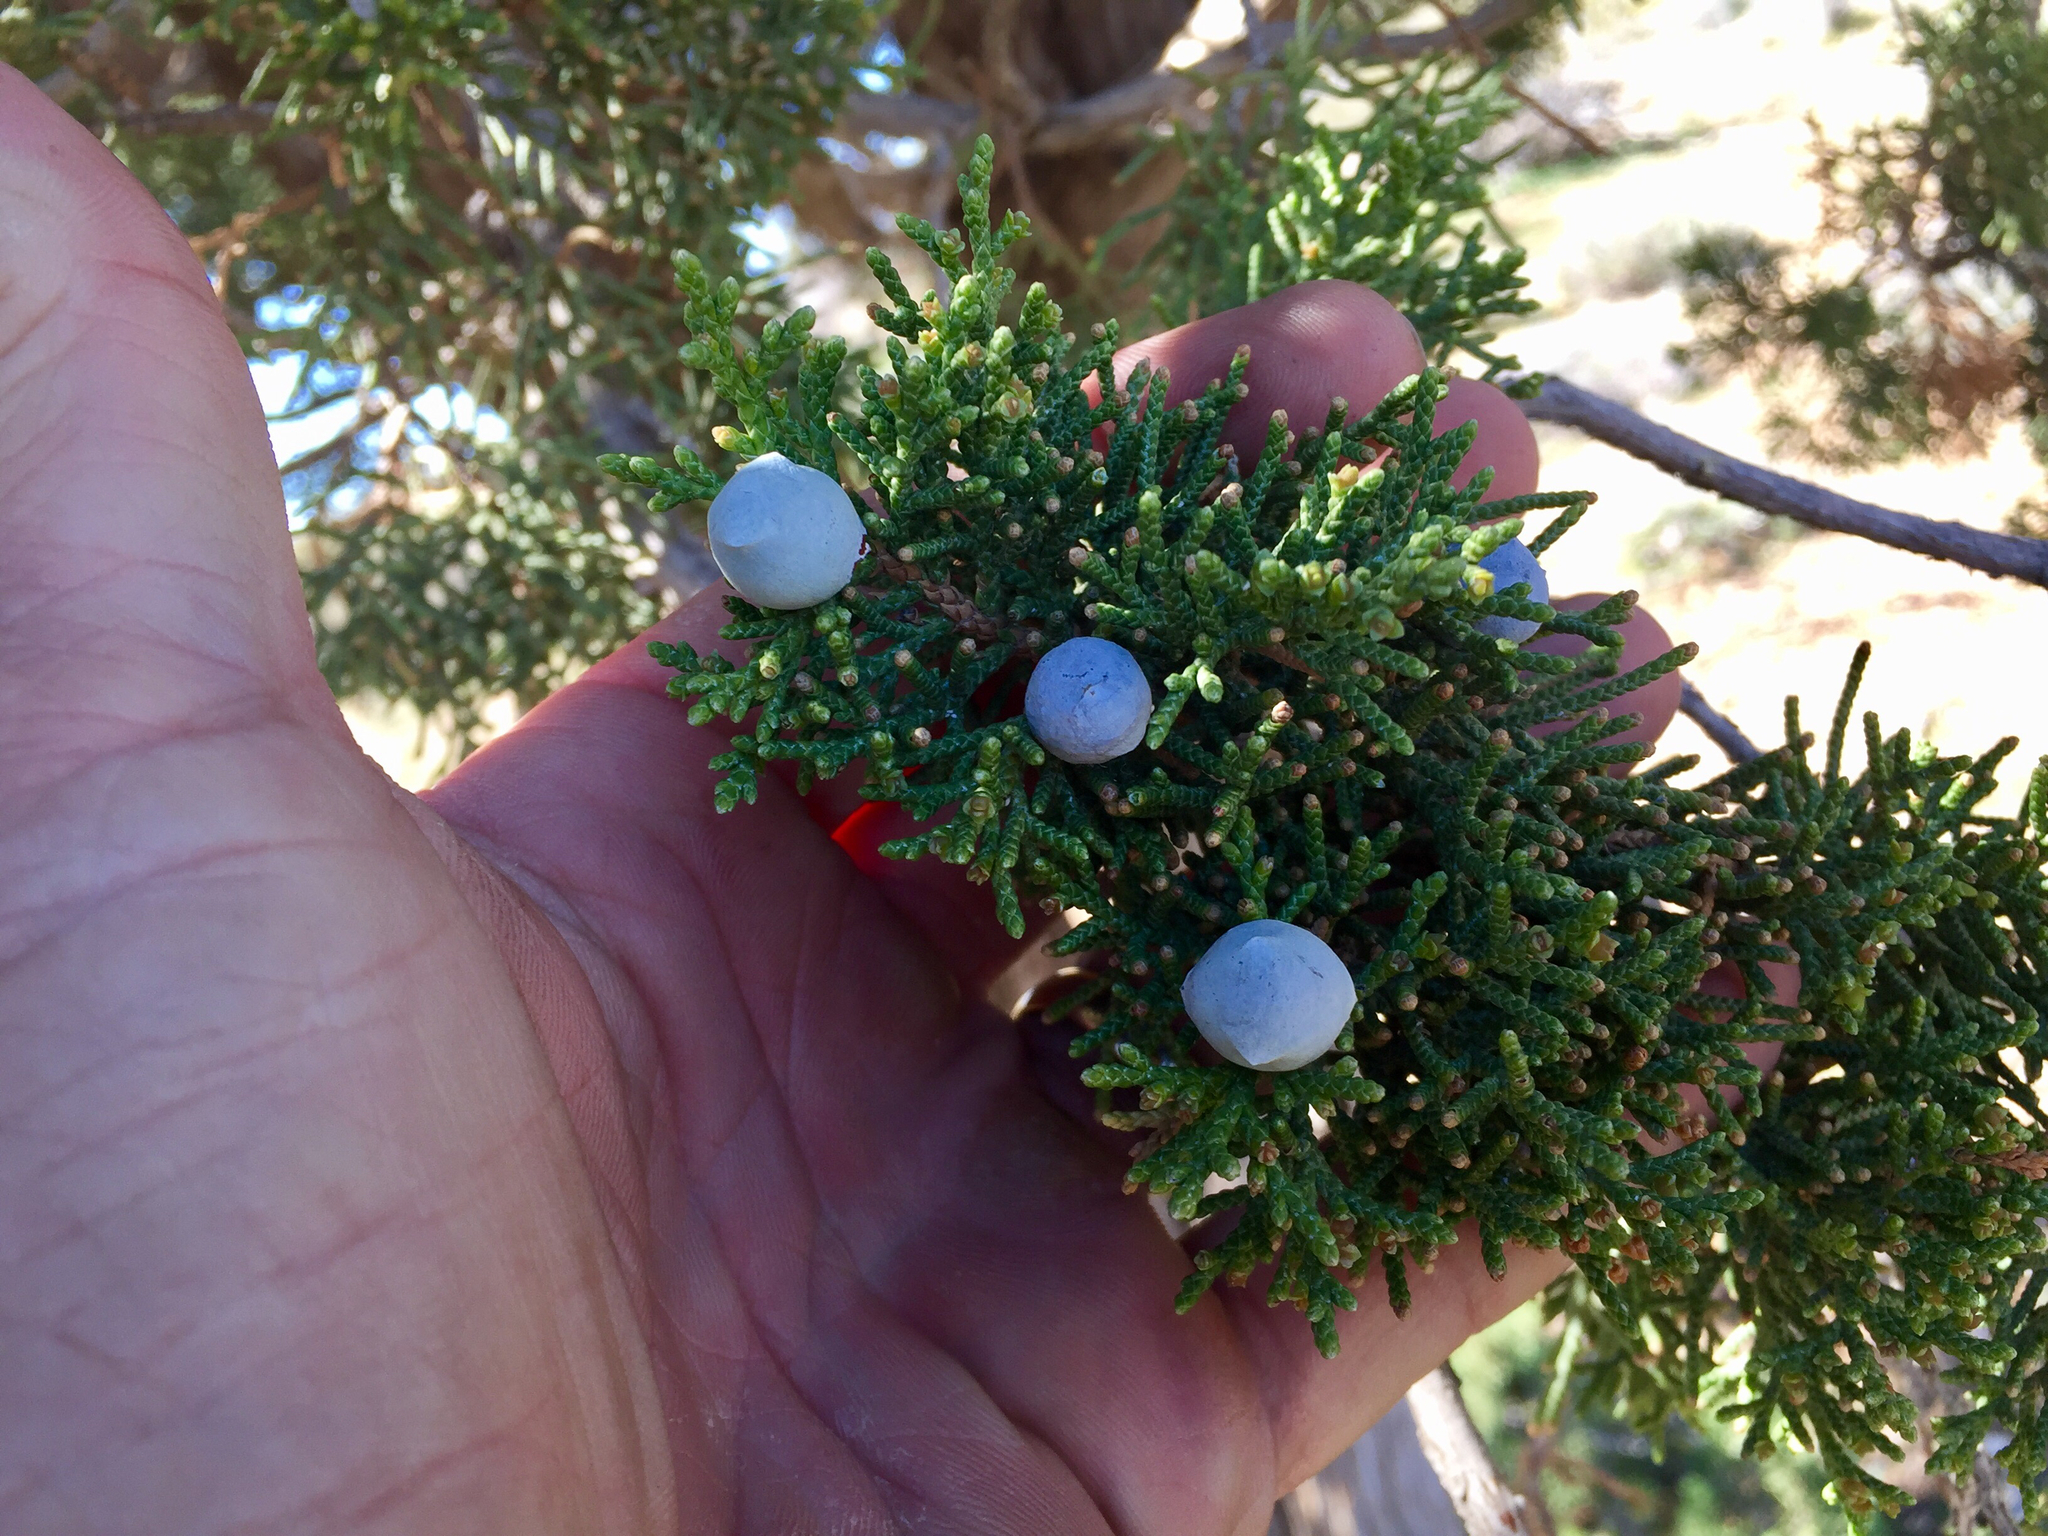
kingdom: Plantae
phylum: Tracheophyta
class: Pinopsida
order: Pinales
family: Cupressaceae
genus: Juniperus
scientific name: Juniperus osteosperma
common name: Utah juniper
